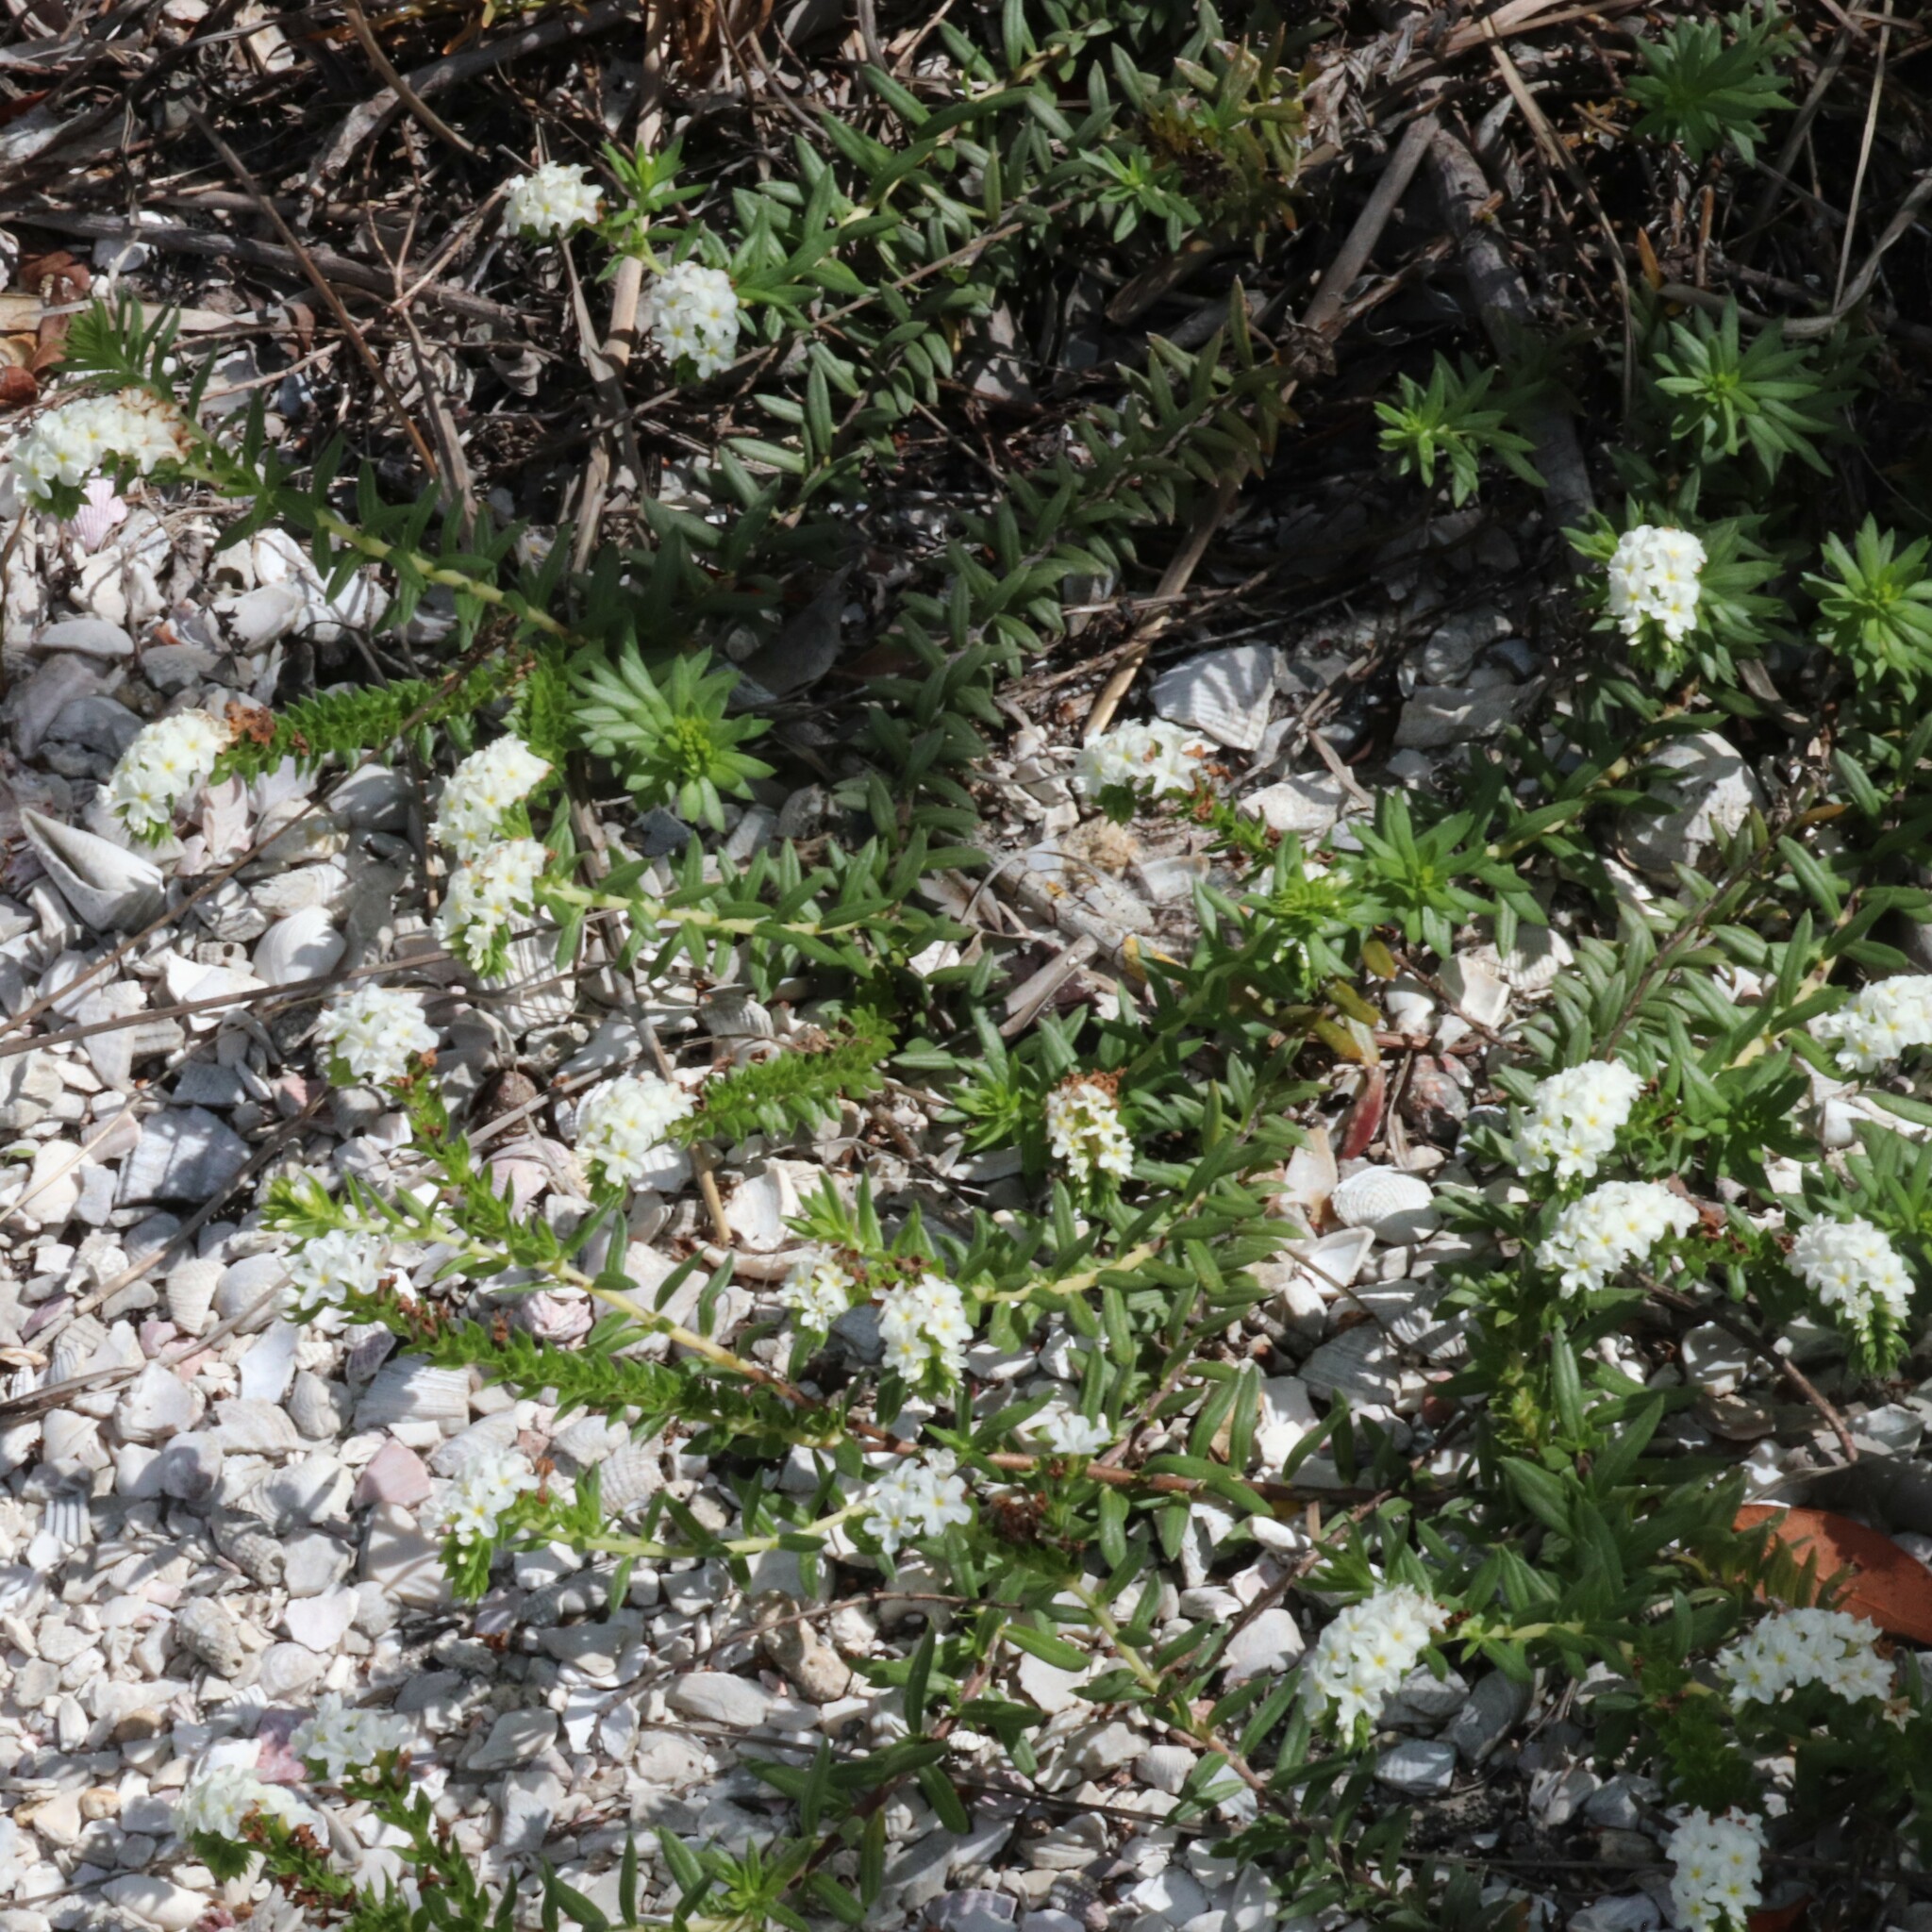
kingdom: Plantae
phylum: Tracheophyta
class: Magnoliopsida
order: Boraginales
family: Heliotropiaceae
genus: Euploca
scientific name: Euploca polyphylla
